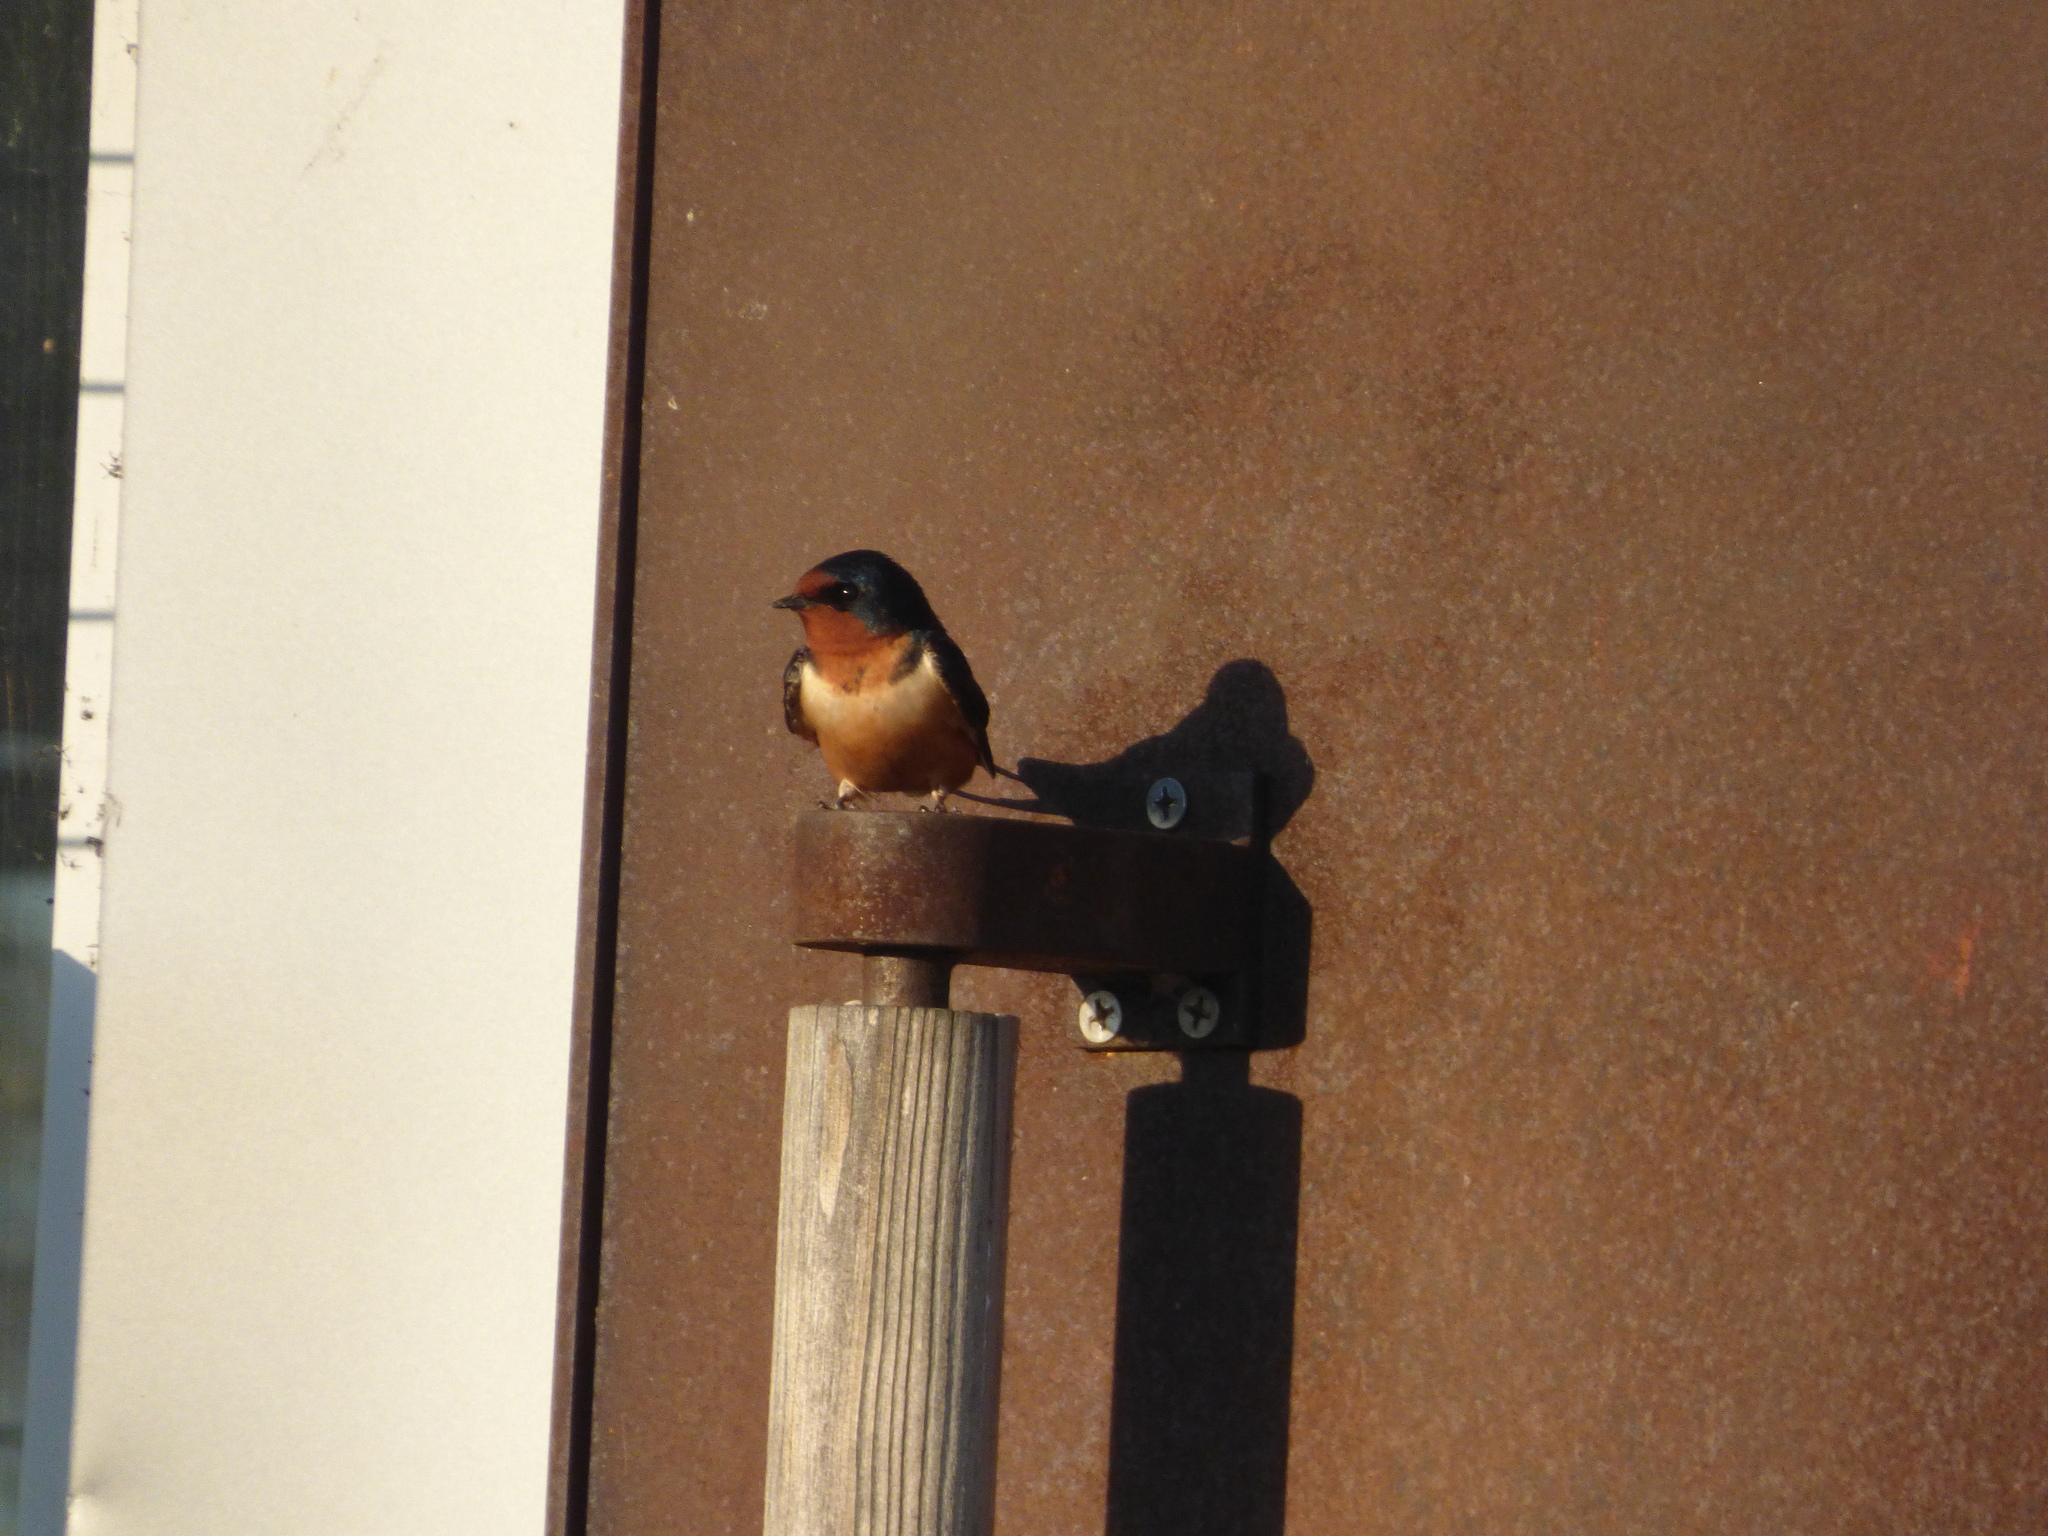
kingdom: Animalia
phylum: Chordata
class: Aves
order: Passeriformes
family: Hirundinidae
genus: Hirundo
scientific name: Hirundo rustica
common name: Barn swallow
